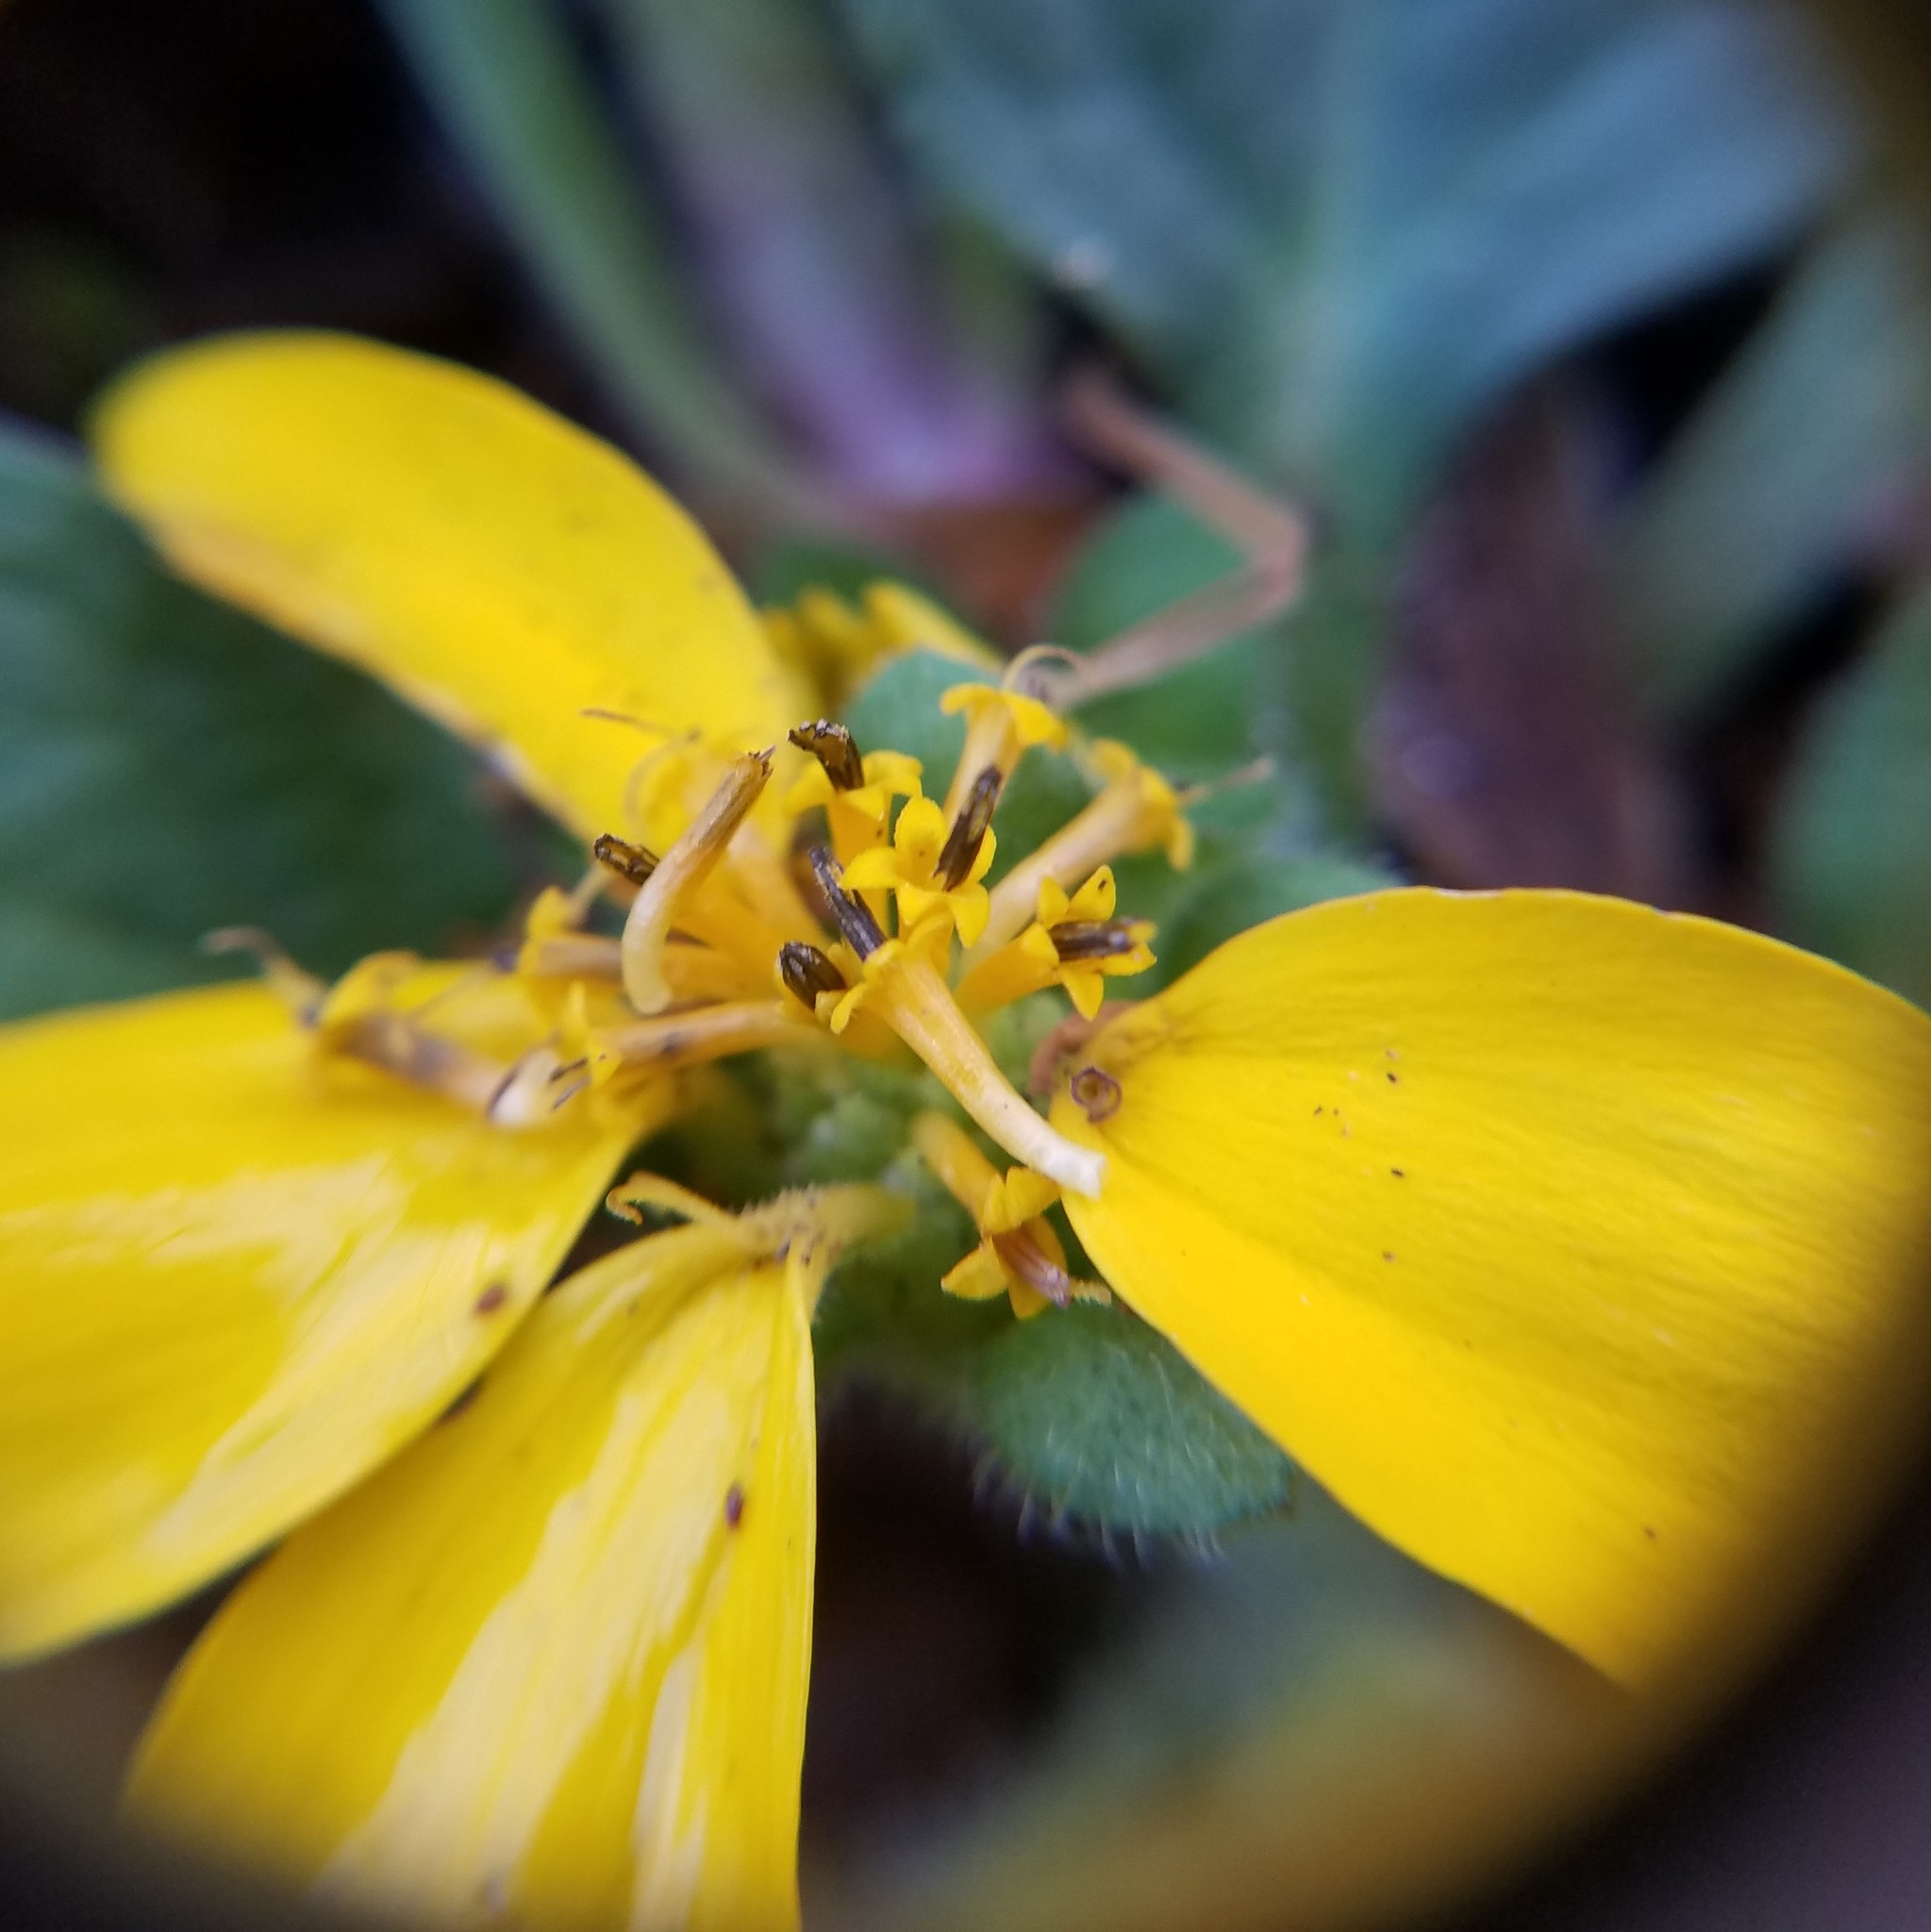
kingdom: Plantae
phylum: Tracheophyta
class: Magnoliopsida
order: Asterales
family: Asteraceae
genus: Chrysogonum
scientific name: Chrysogonum virginianum
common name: Golden-knee
